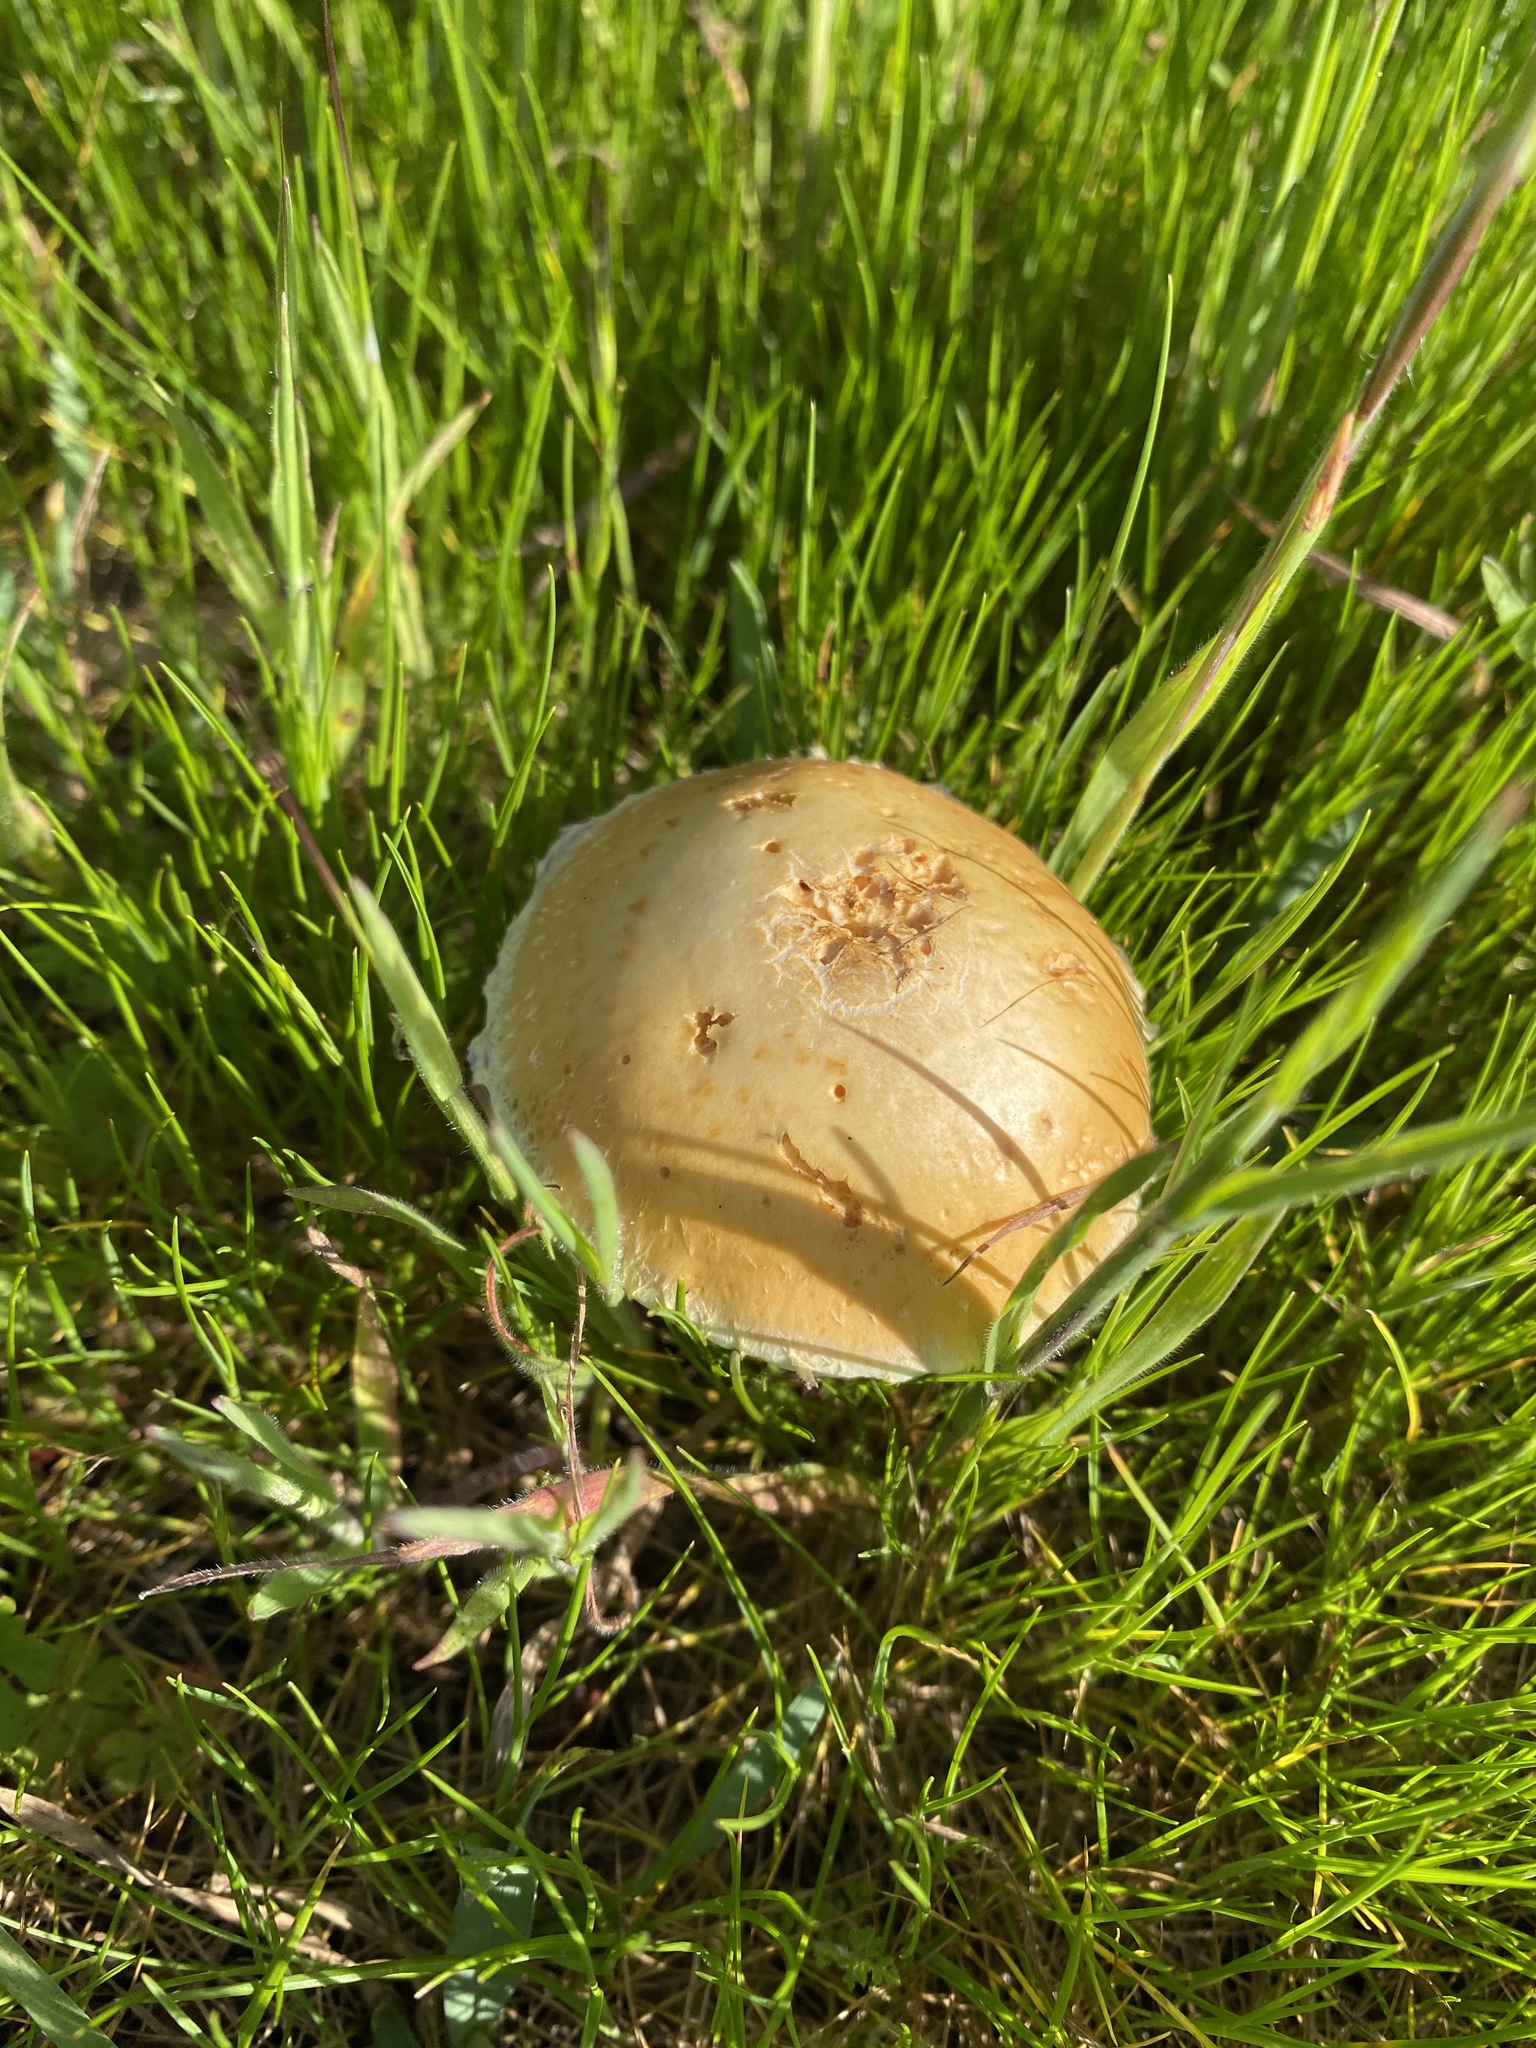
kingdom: Fungi
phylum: Basidiomycota
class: Agaricomycetes
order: Agaricales
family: Strophariaceae
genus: Leratiomyces
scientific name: Leratiomyces percevalii
